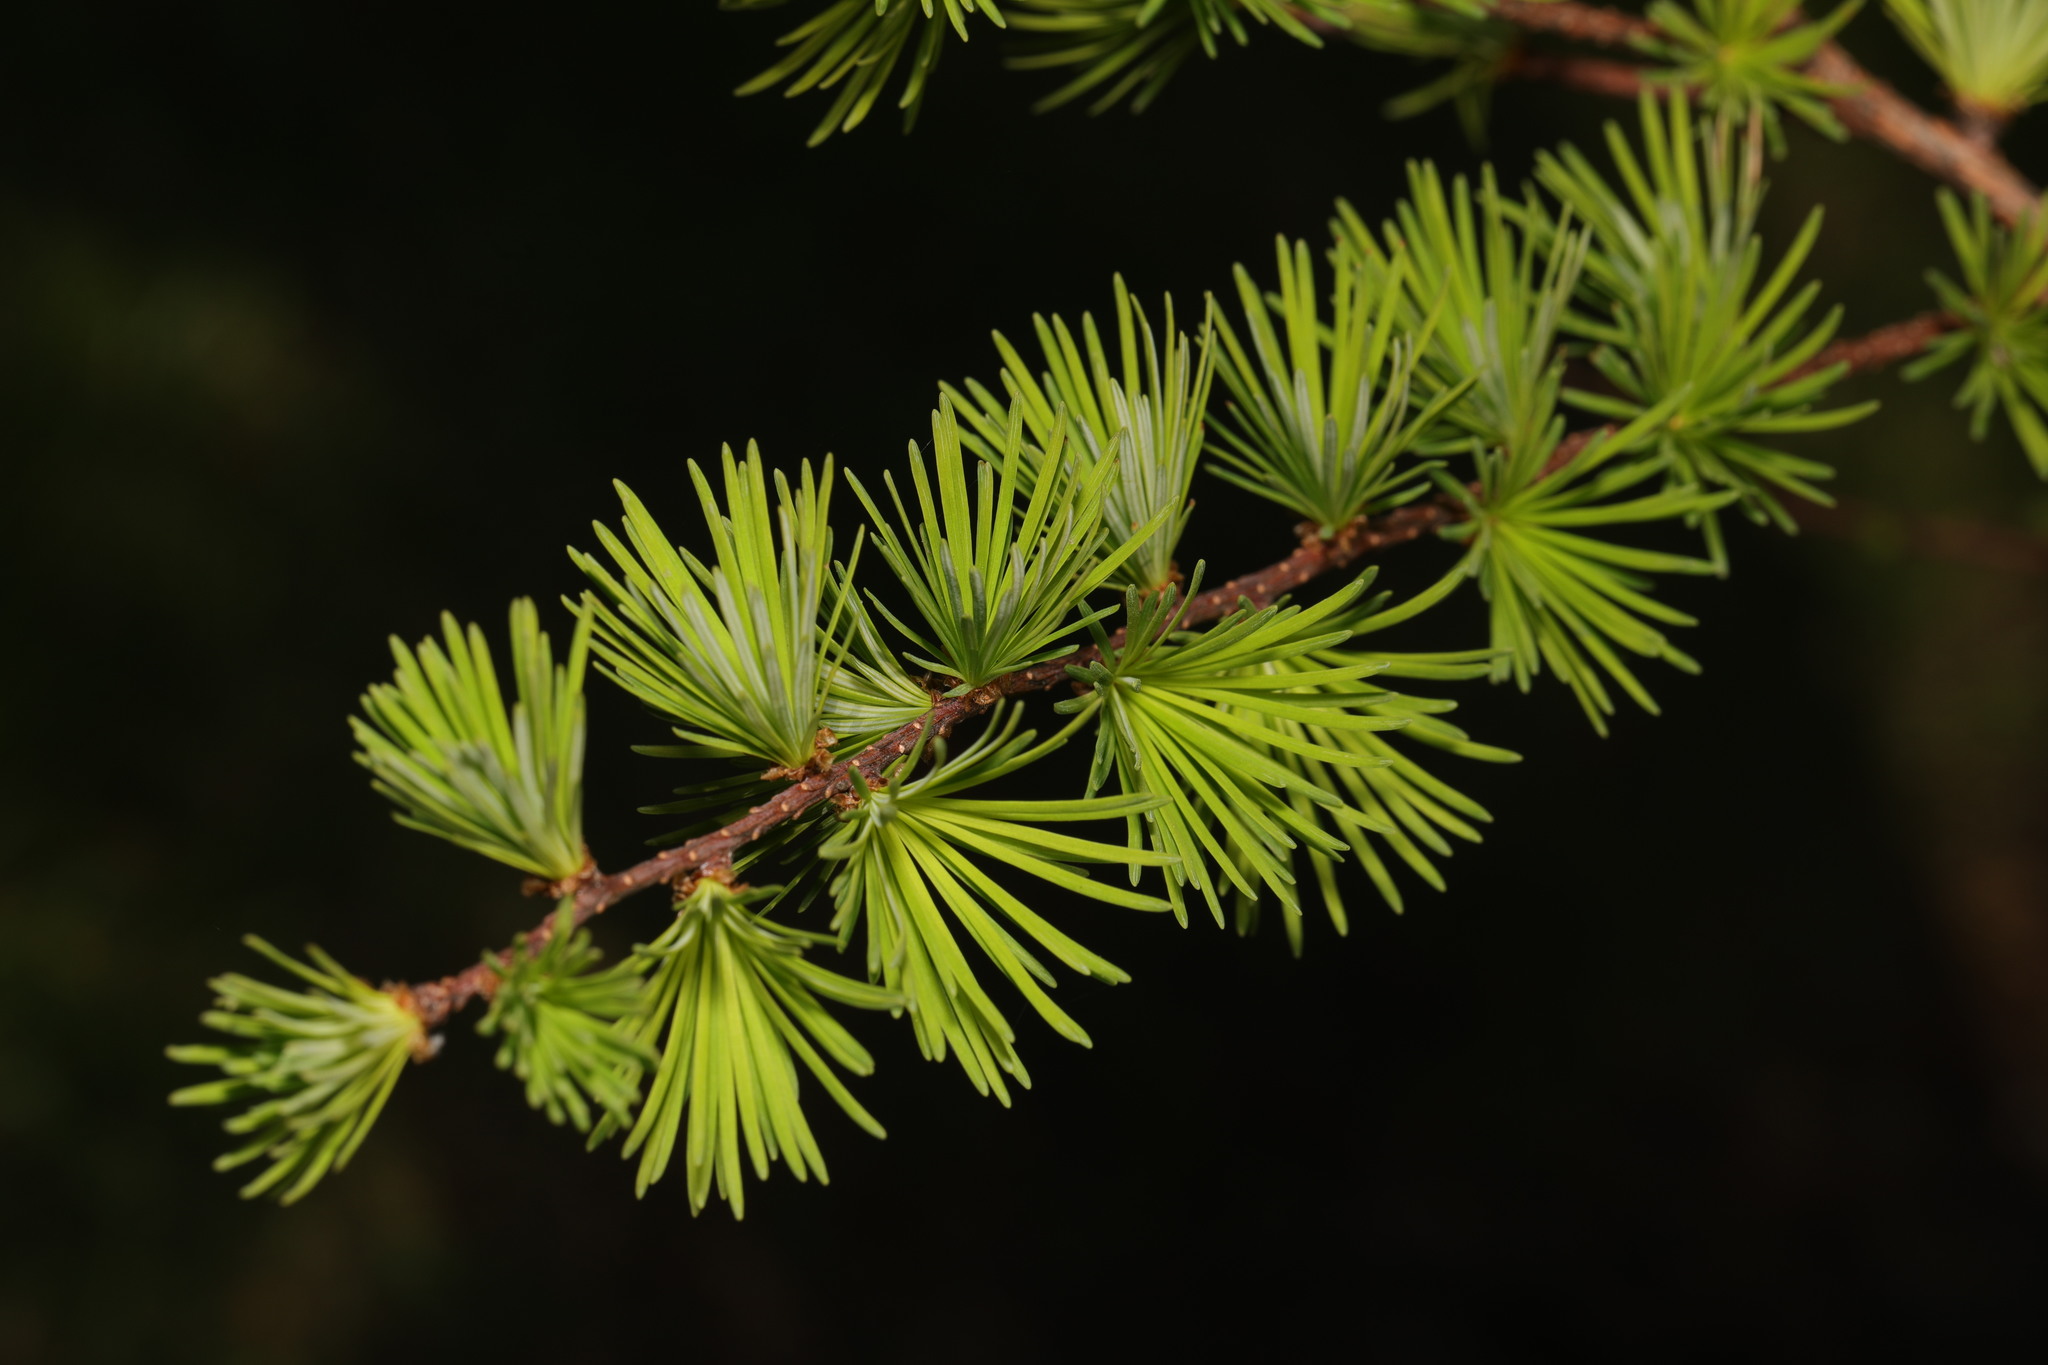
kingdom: Plantae
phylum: Tracheophyta
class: Pinopsida
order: Pinales
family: Pinaceae
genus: Larix
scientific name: Larix decidua
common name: European larch
